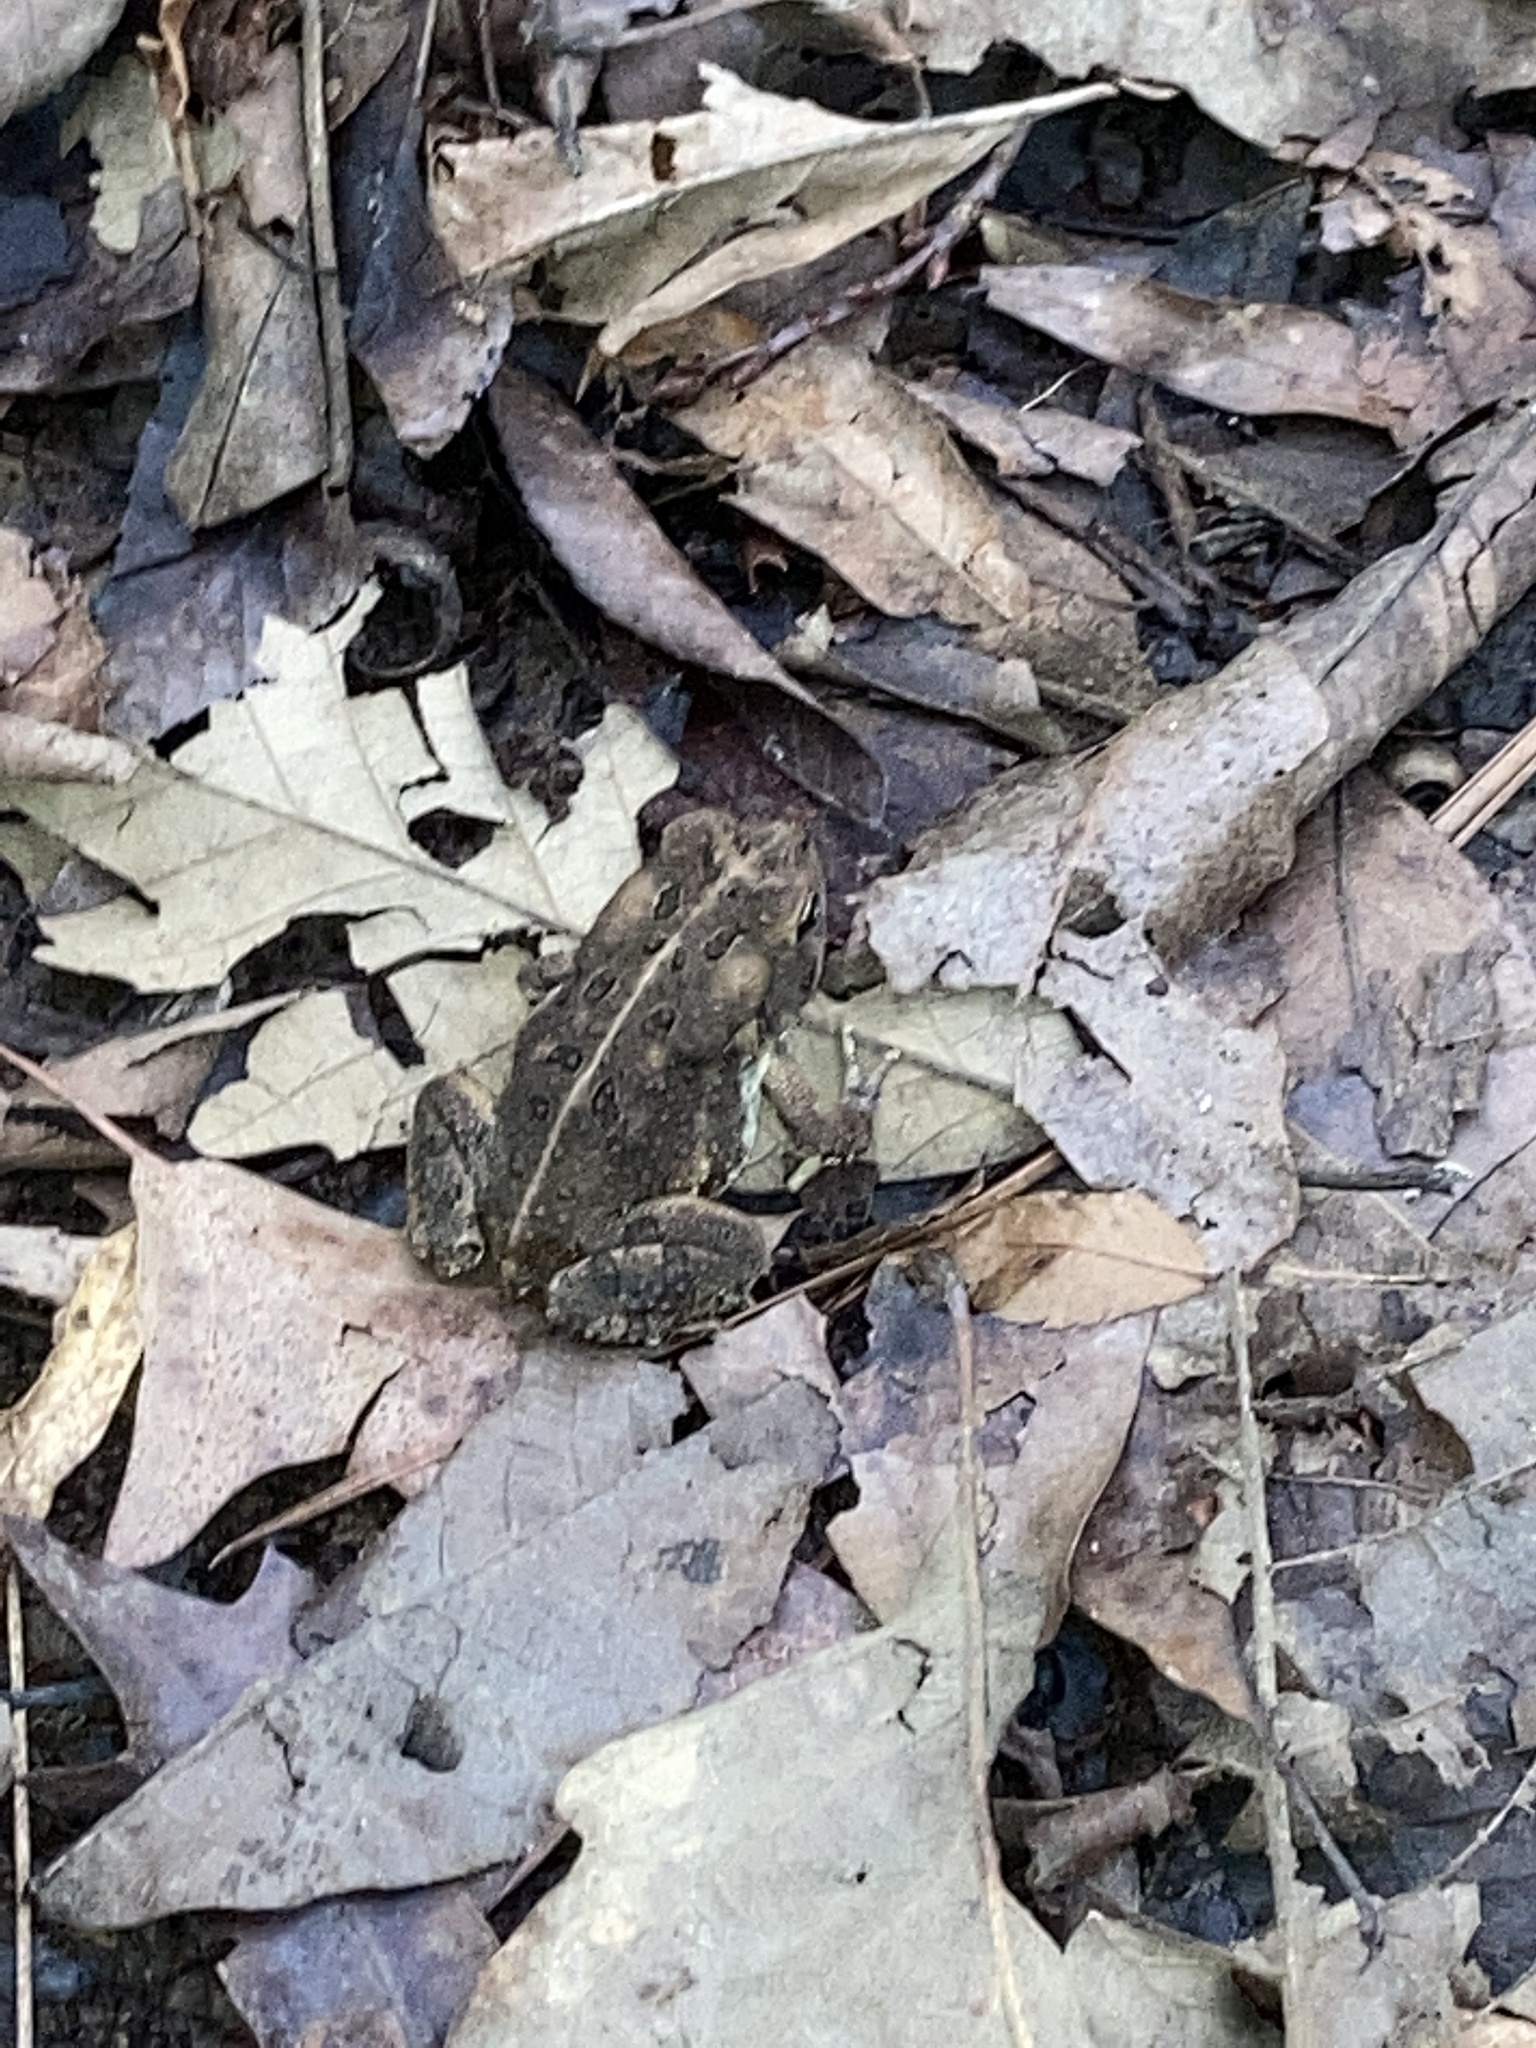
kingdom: Animalia
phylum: Chordata
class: Amphibia
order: Anura
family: Bufonidae
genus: Anaxyrus
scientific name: Anaxyrus fowleri
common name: Fowler's toad
